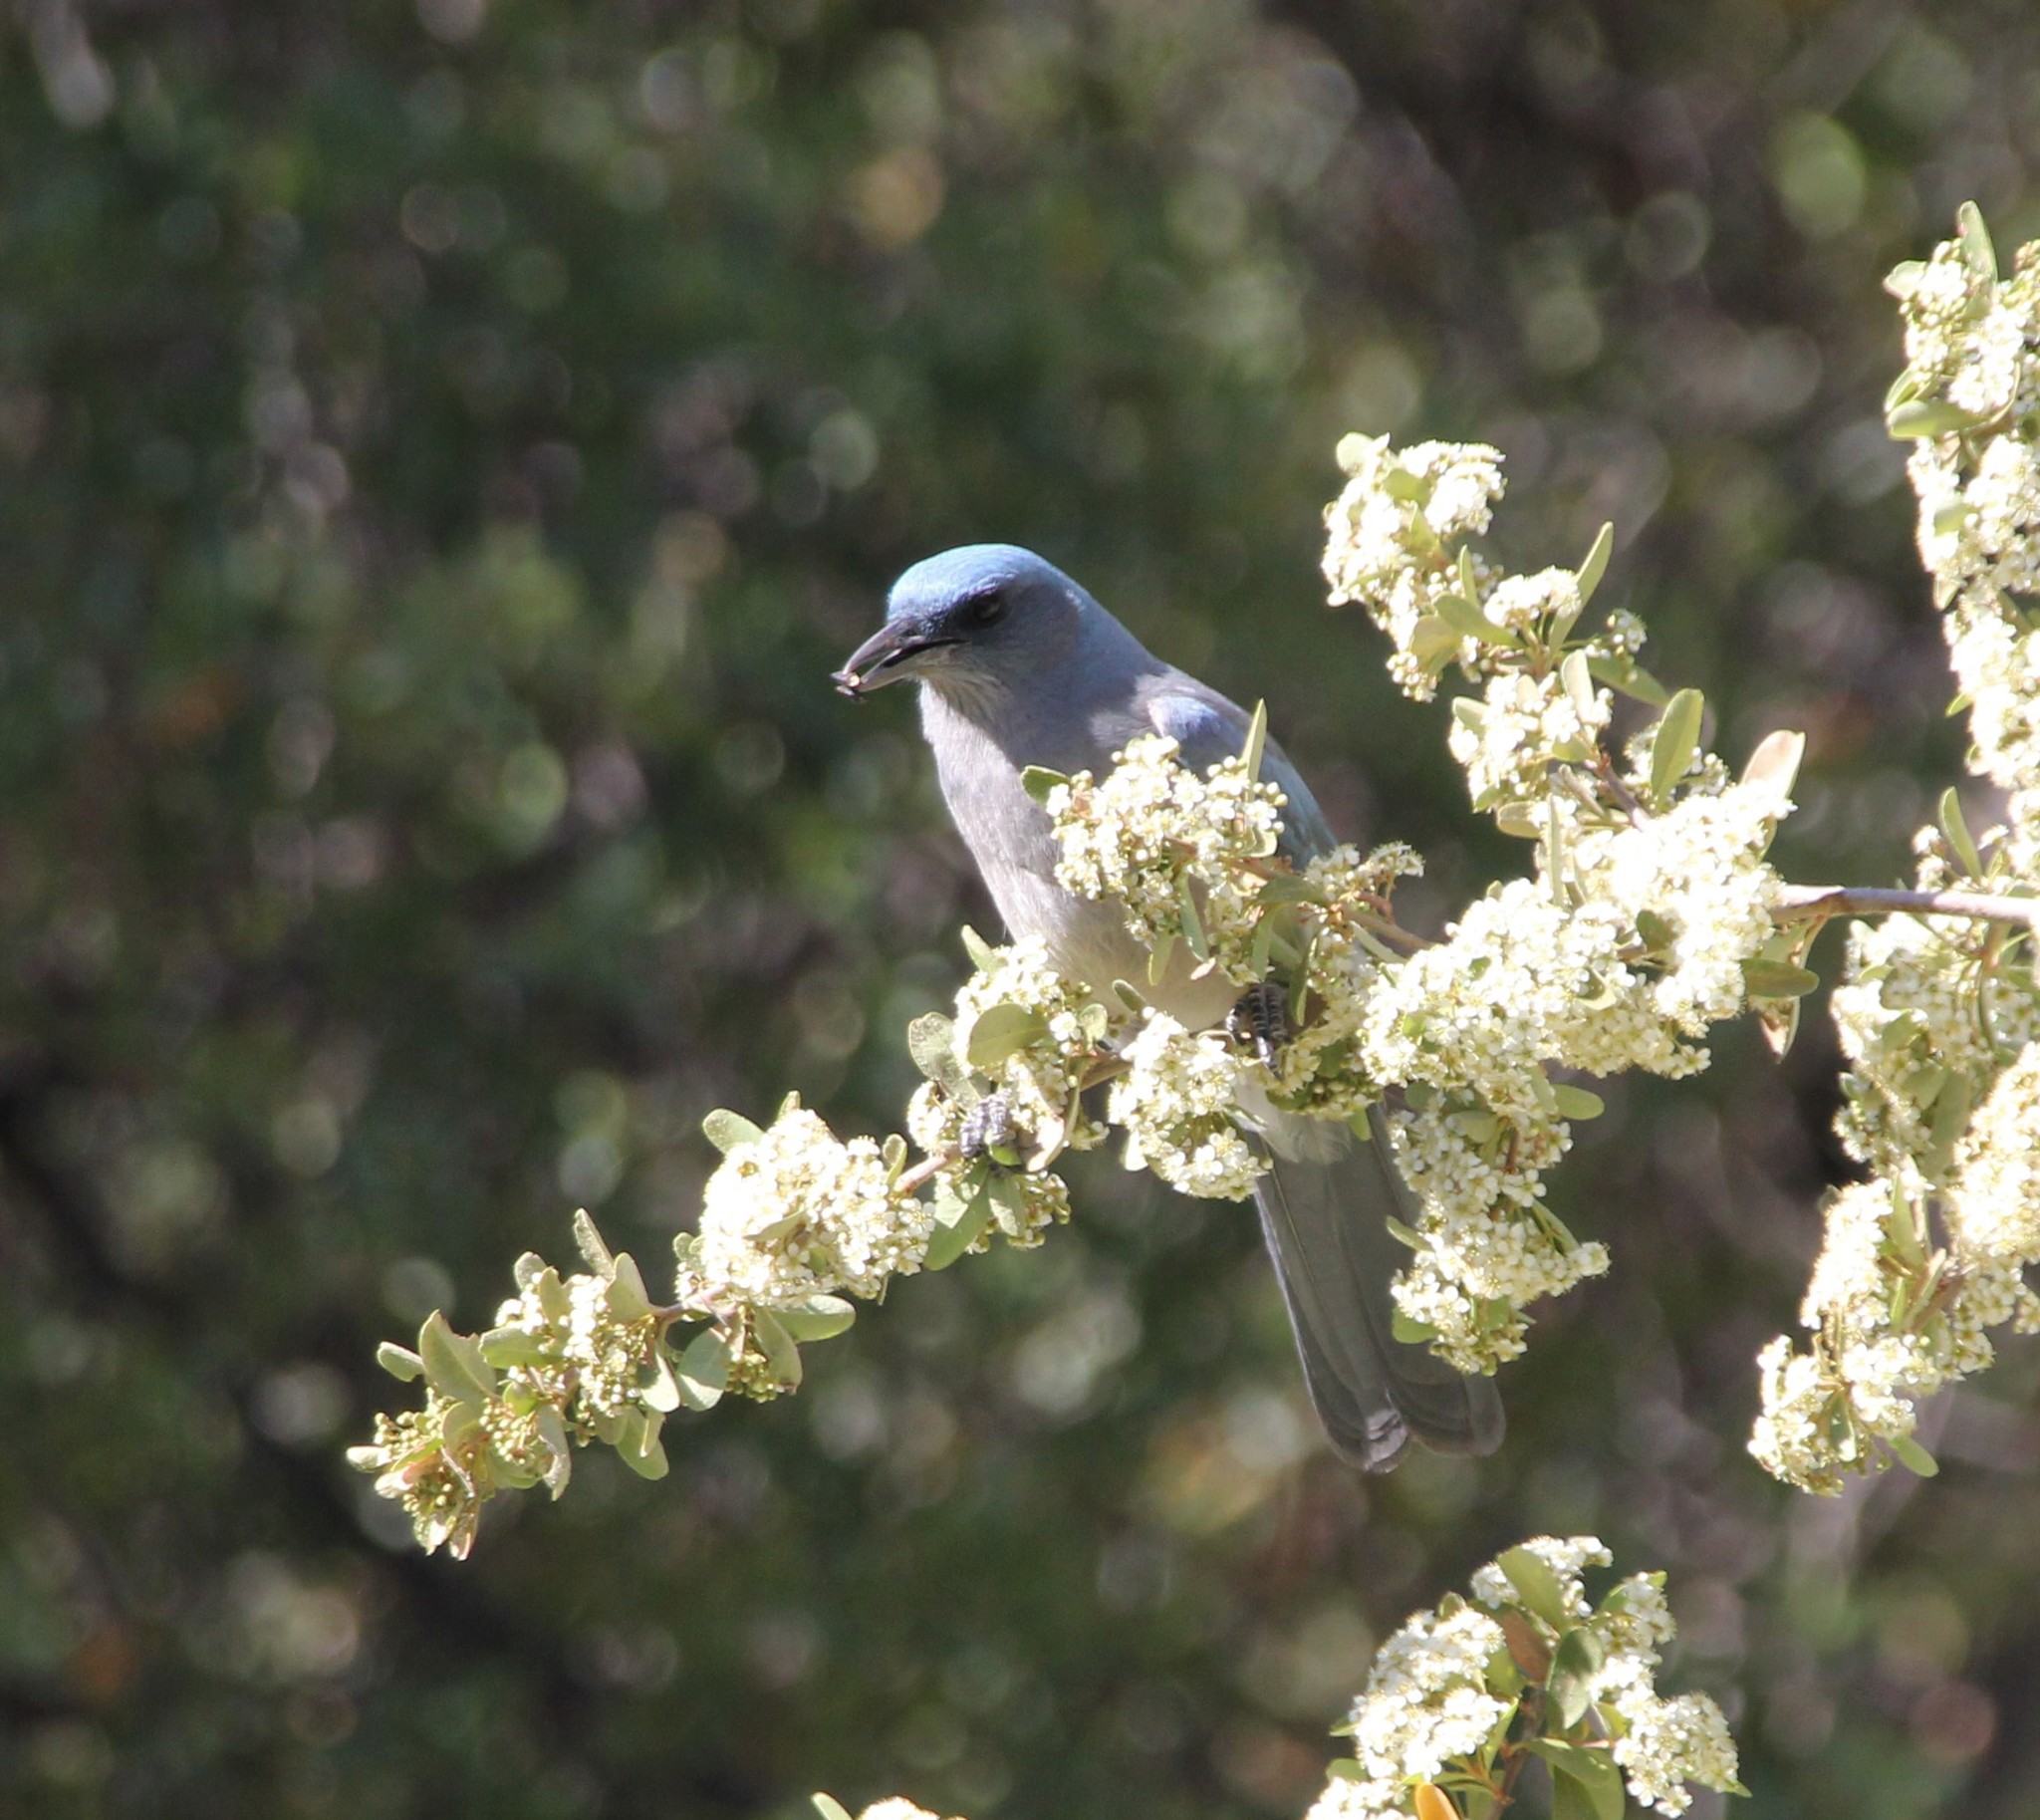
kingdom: Animalia
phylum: Chordata
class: Aves
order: Passeriformes
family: Corvidae
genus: Aphelocoma
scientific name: Aphelocoma wollweberi
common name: Mexican jay
